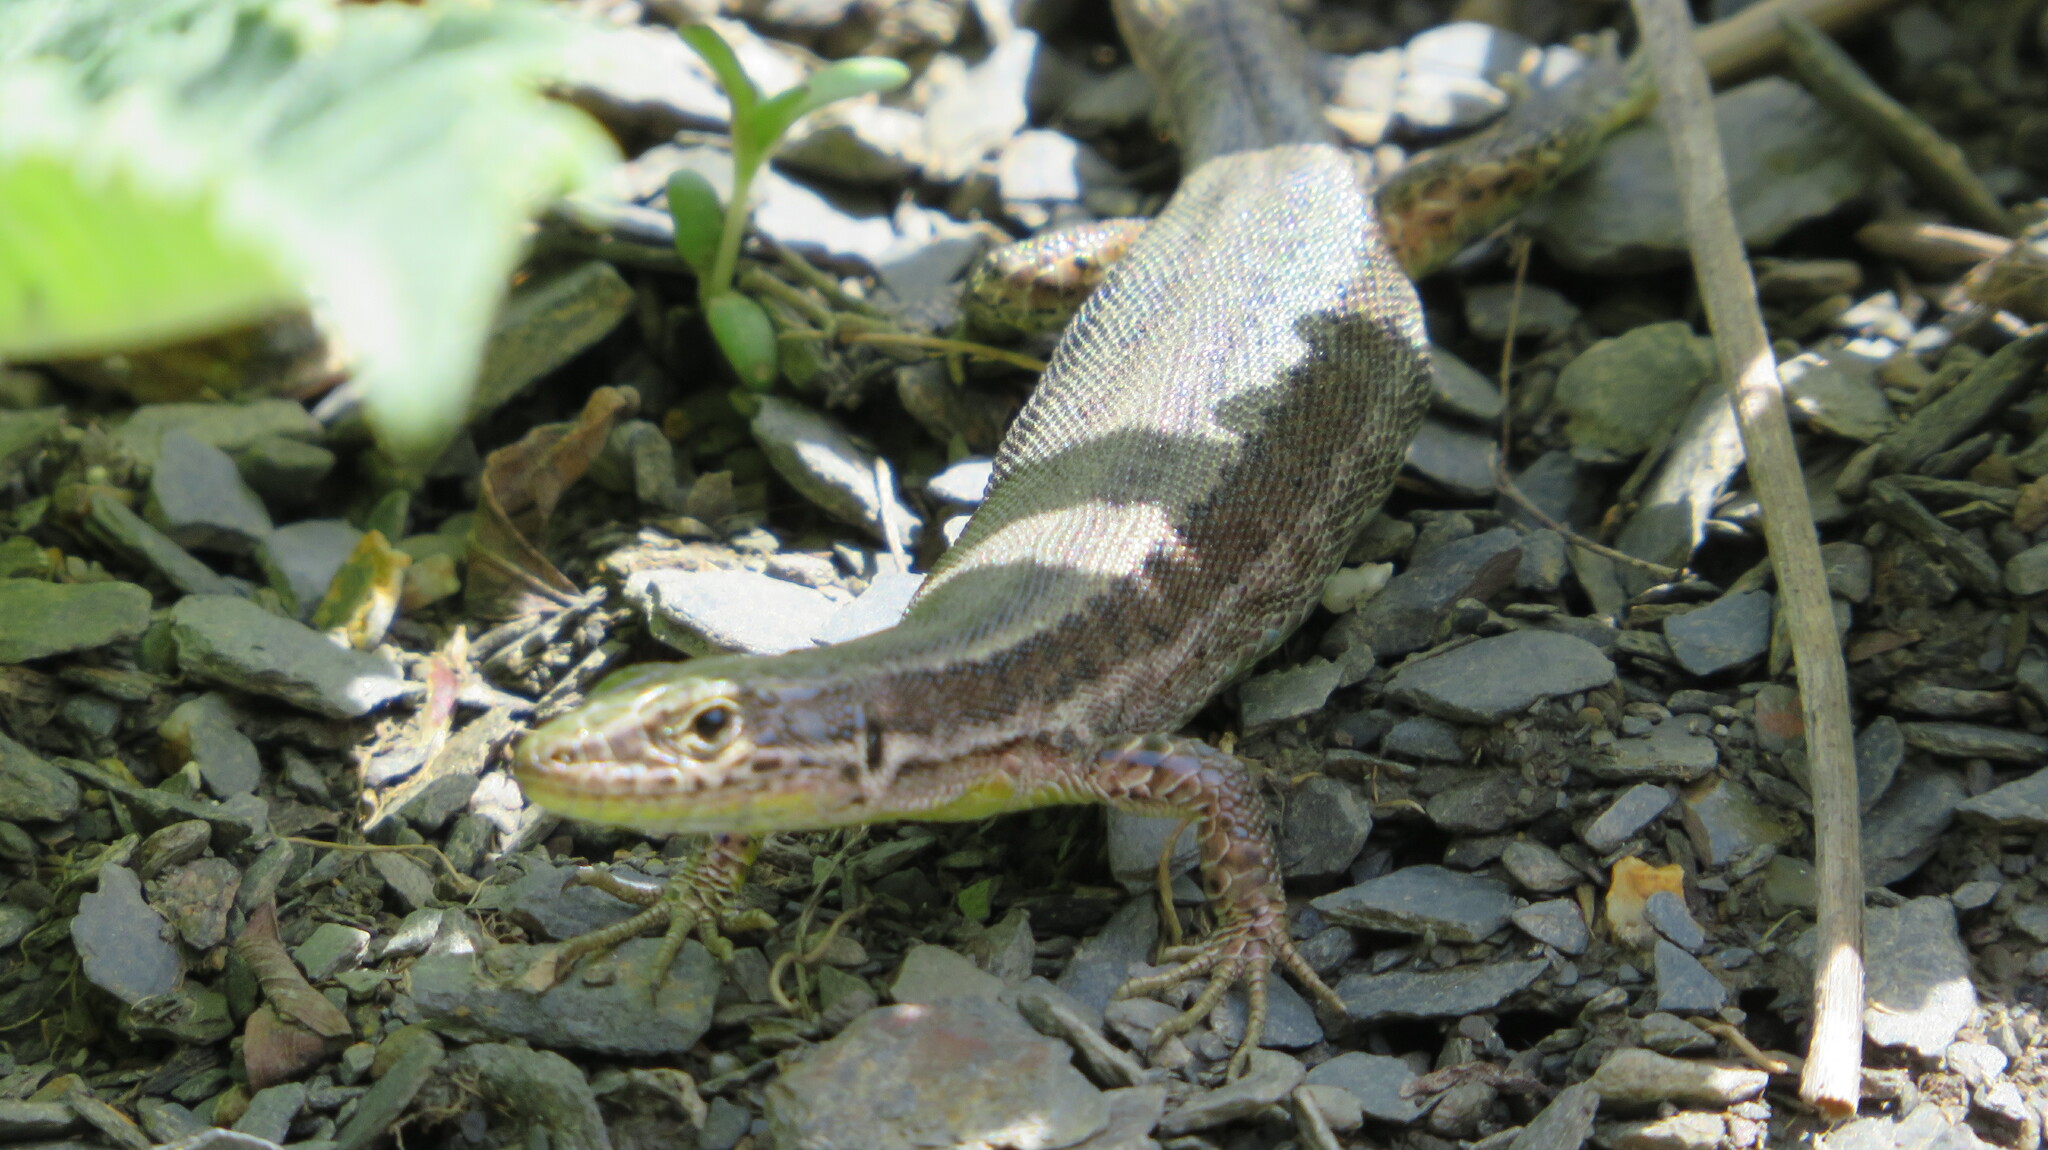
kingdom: Animalia
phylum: Chordata
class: Squamata
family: Lacertidae
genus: Darevskia
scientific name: Darevskia caucasica
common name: Caucasian llzard
